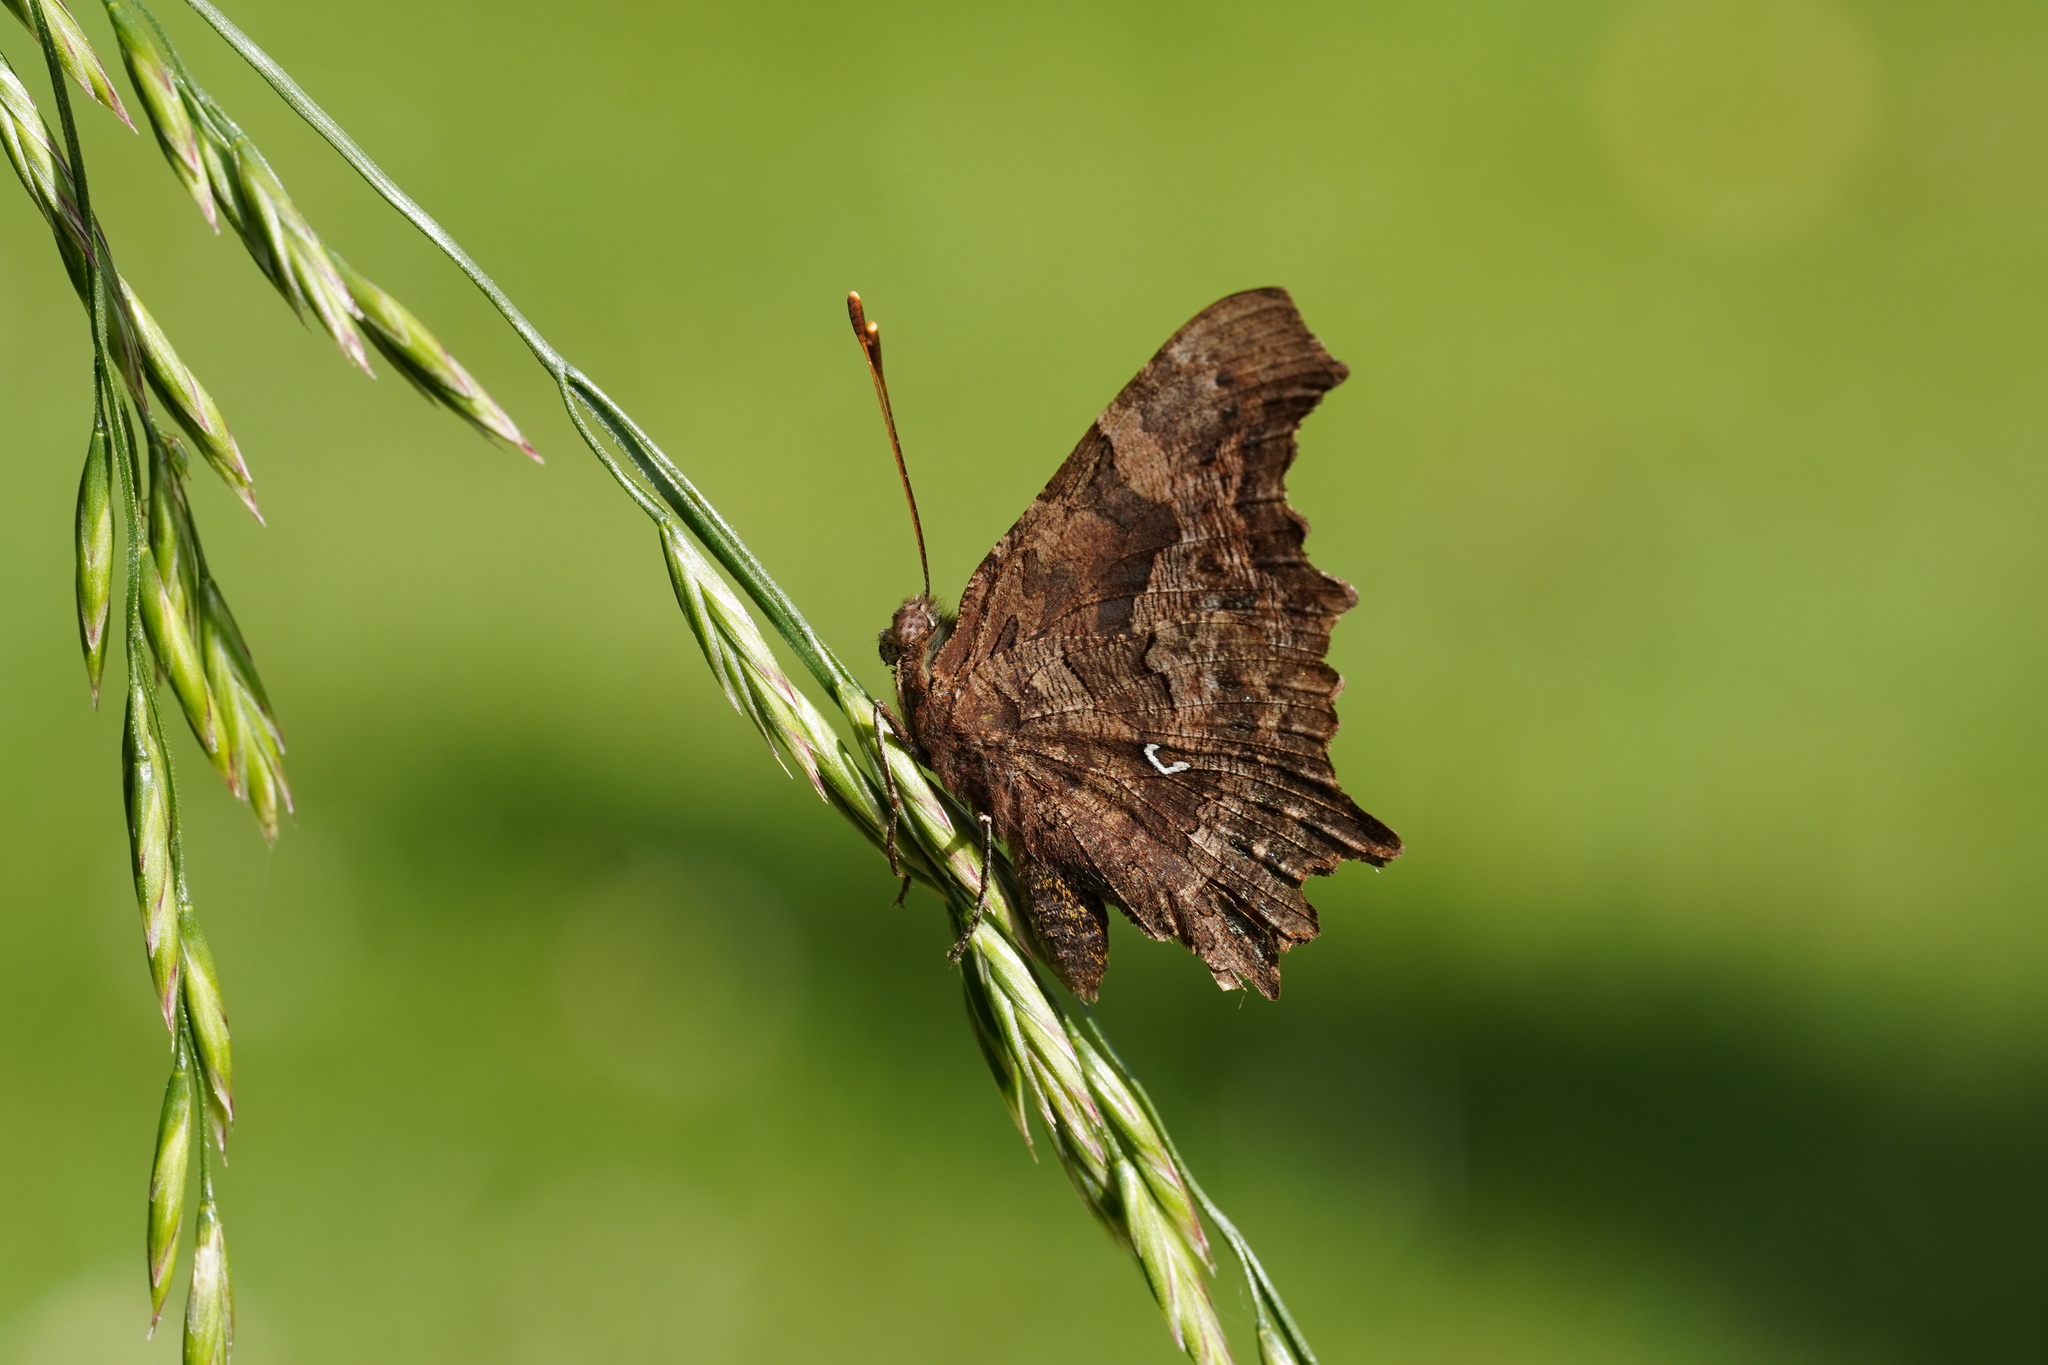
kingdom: Animalia
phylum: Arthropoda
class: Insecta
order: Lepidoptera
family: Nymphalidae
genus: Polygonia
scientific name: Polygonia c-album
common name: Comma
